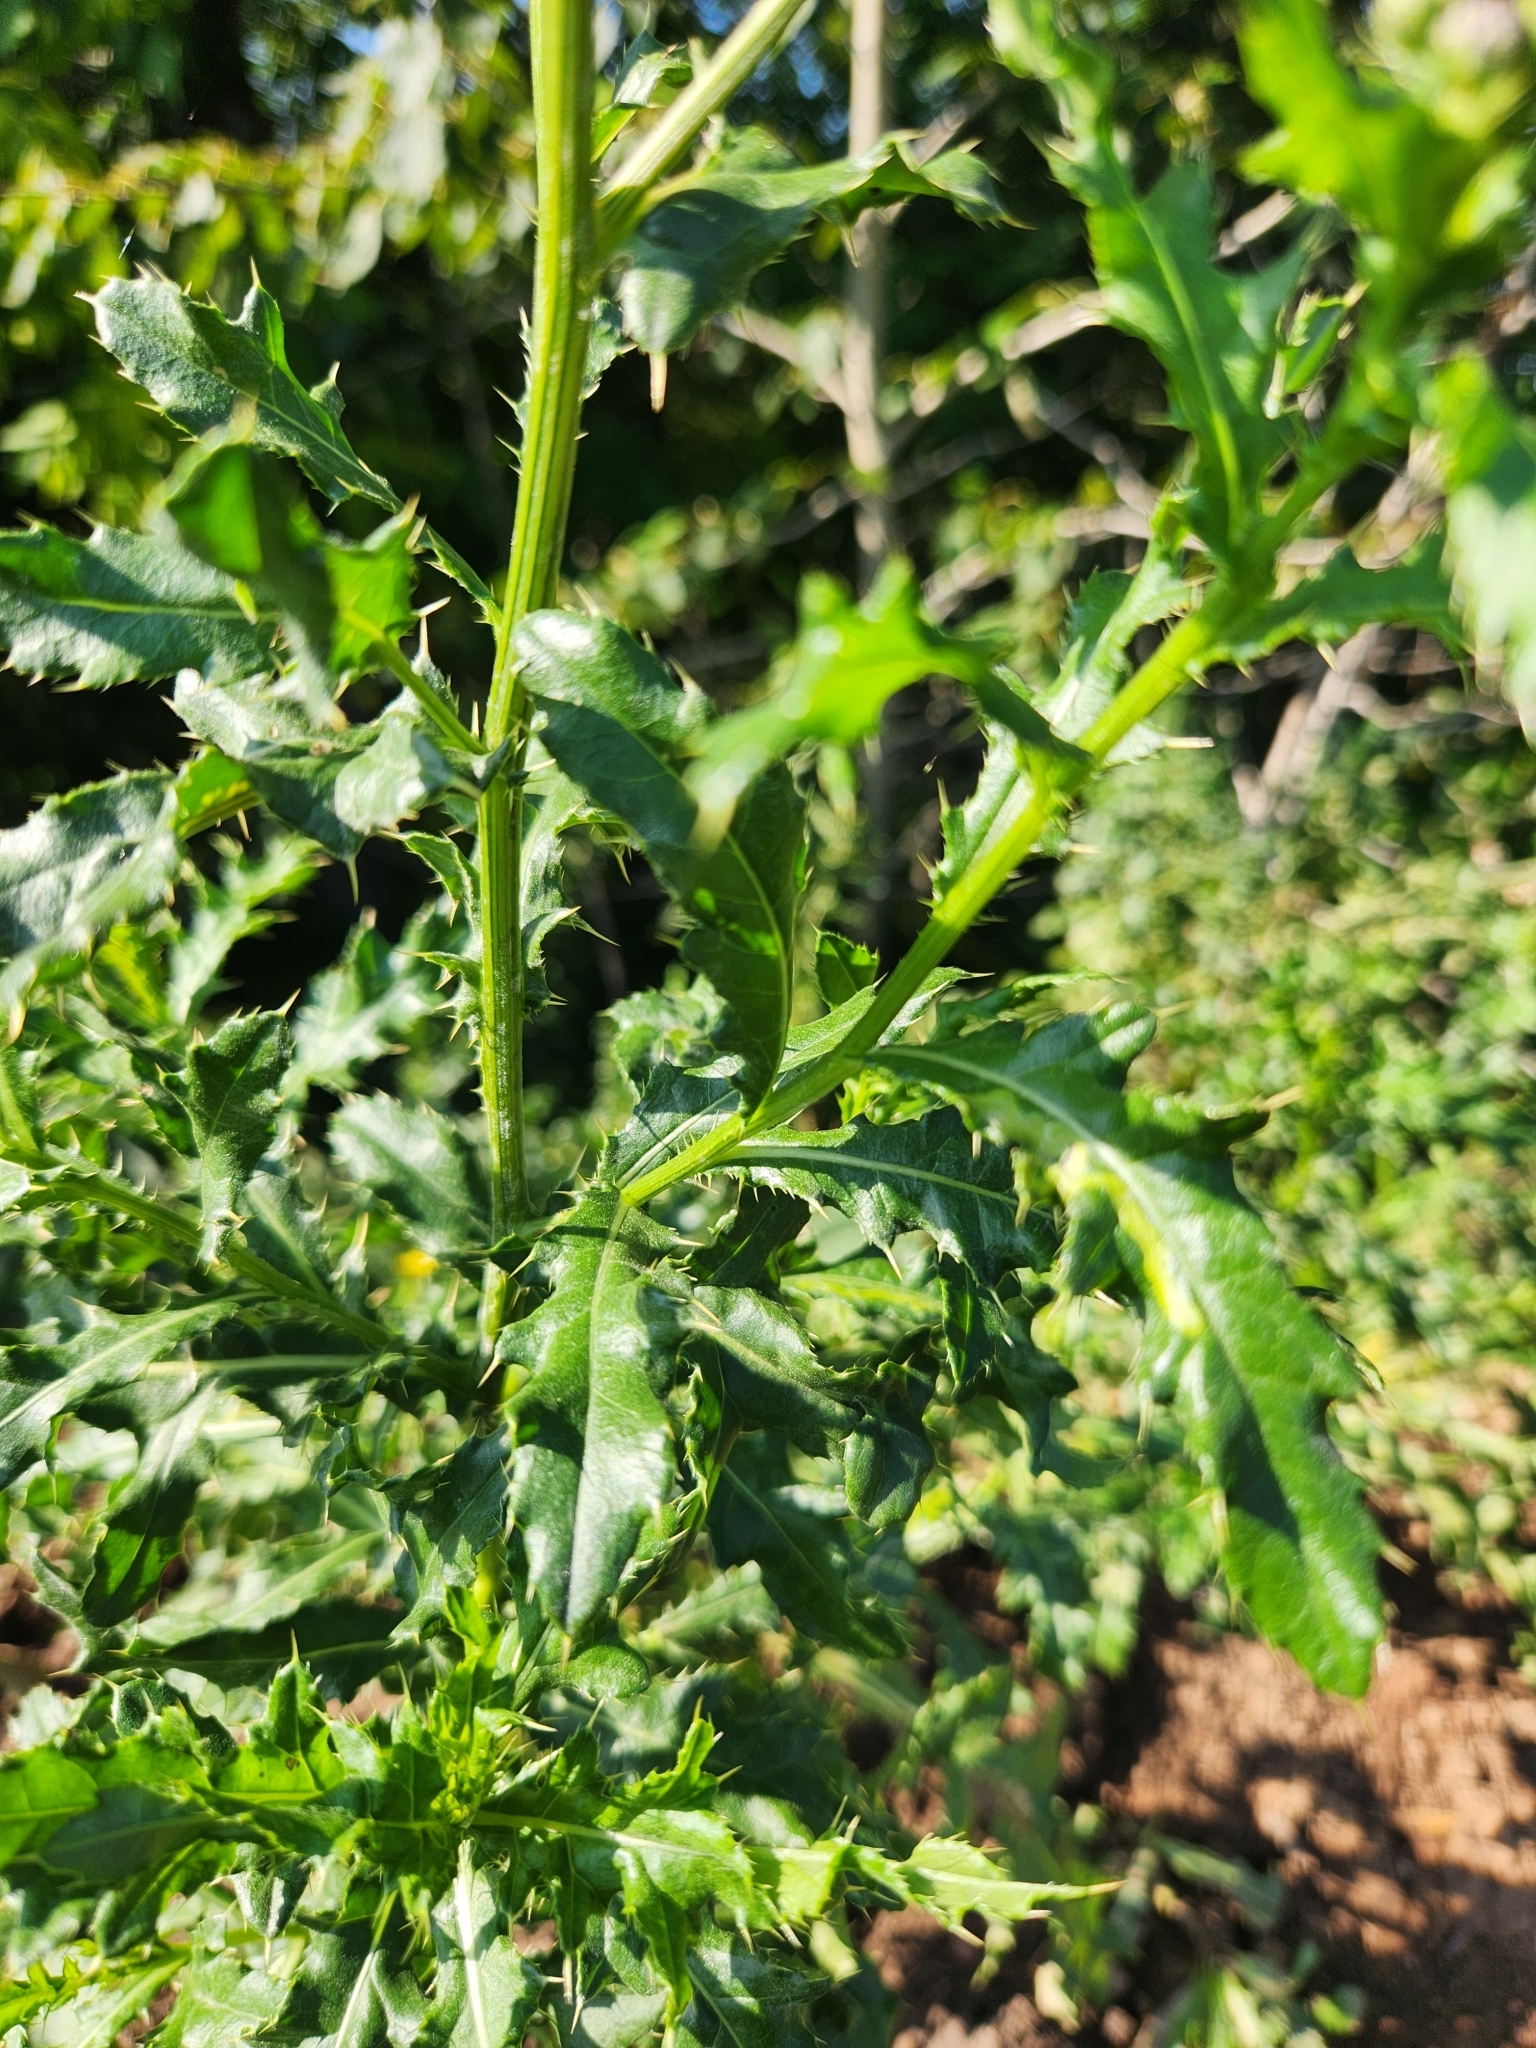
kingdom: Plantae
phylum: Tracheophyta
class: Magnoliopsida
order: Asterales
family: Asteraceae
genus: Cirsium
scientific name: Cirsium arvense
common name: Creeping thistle
